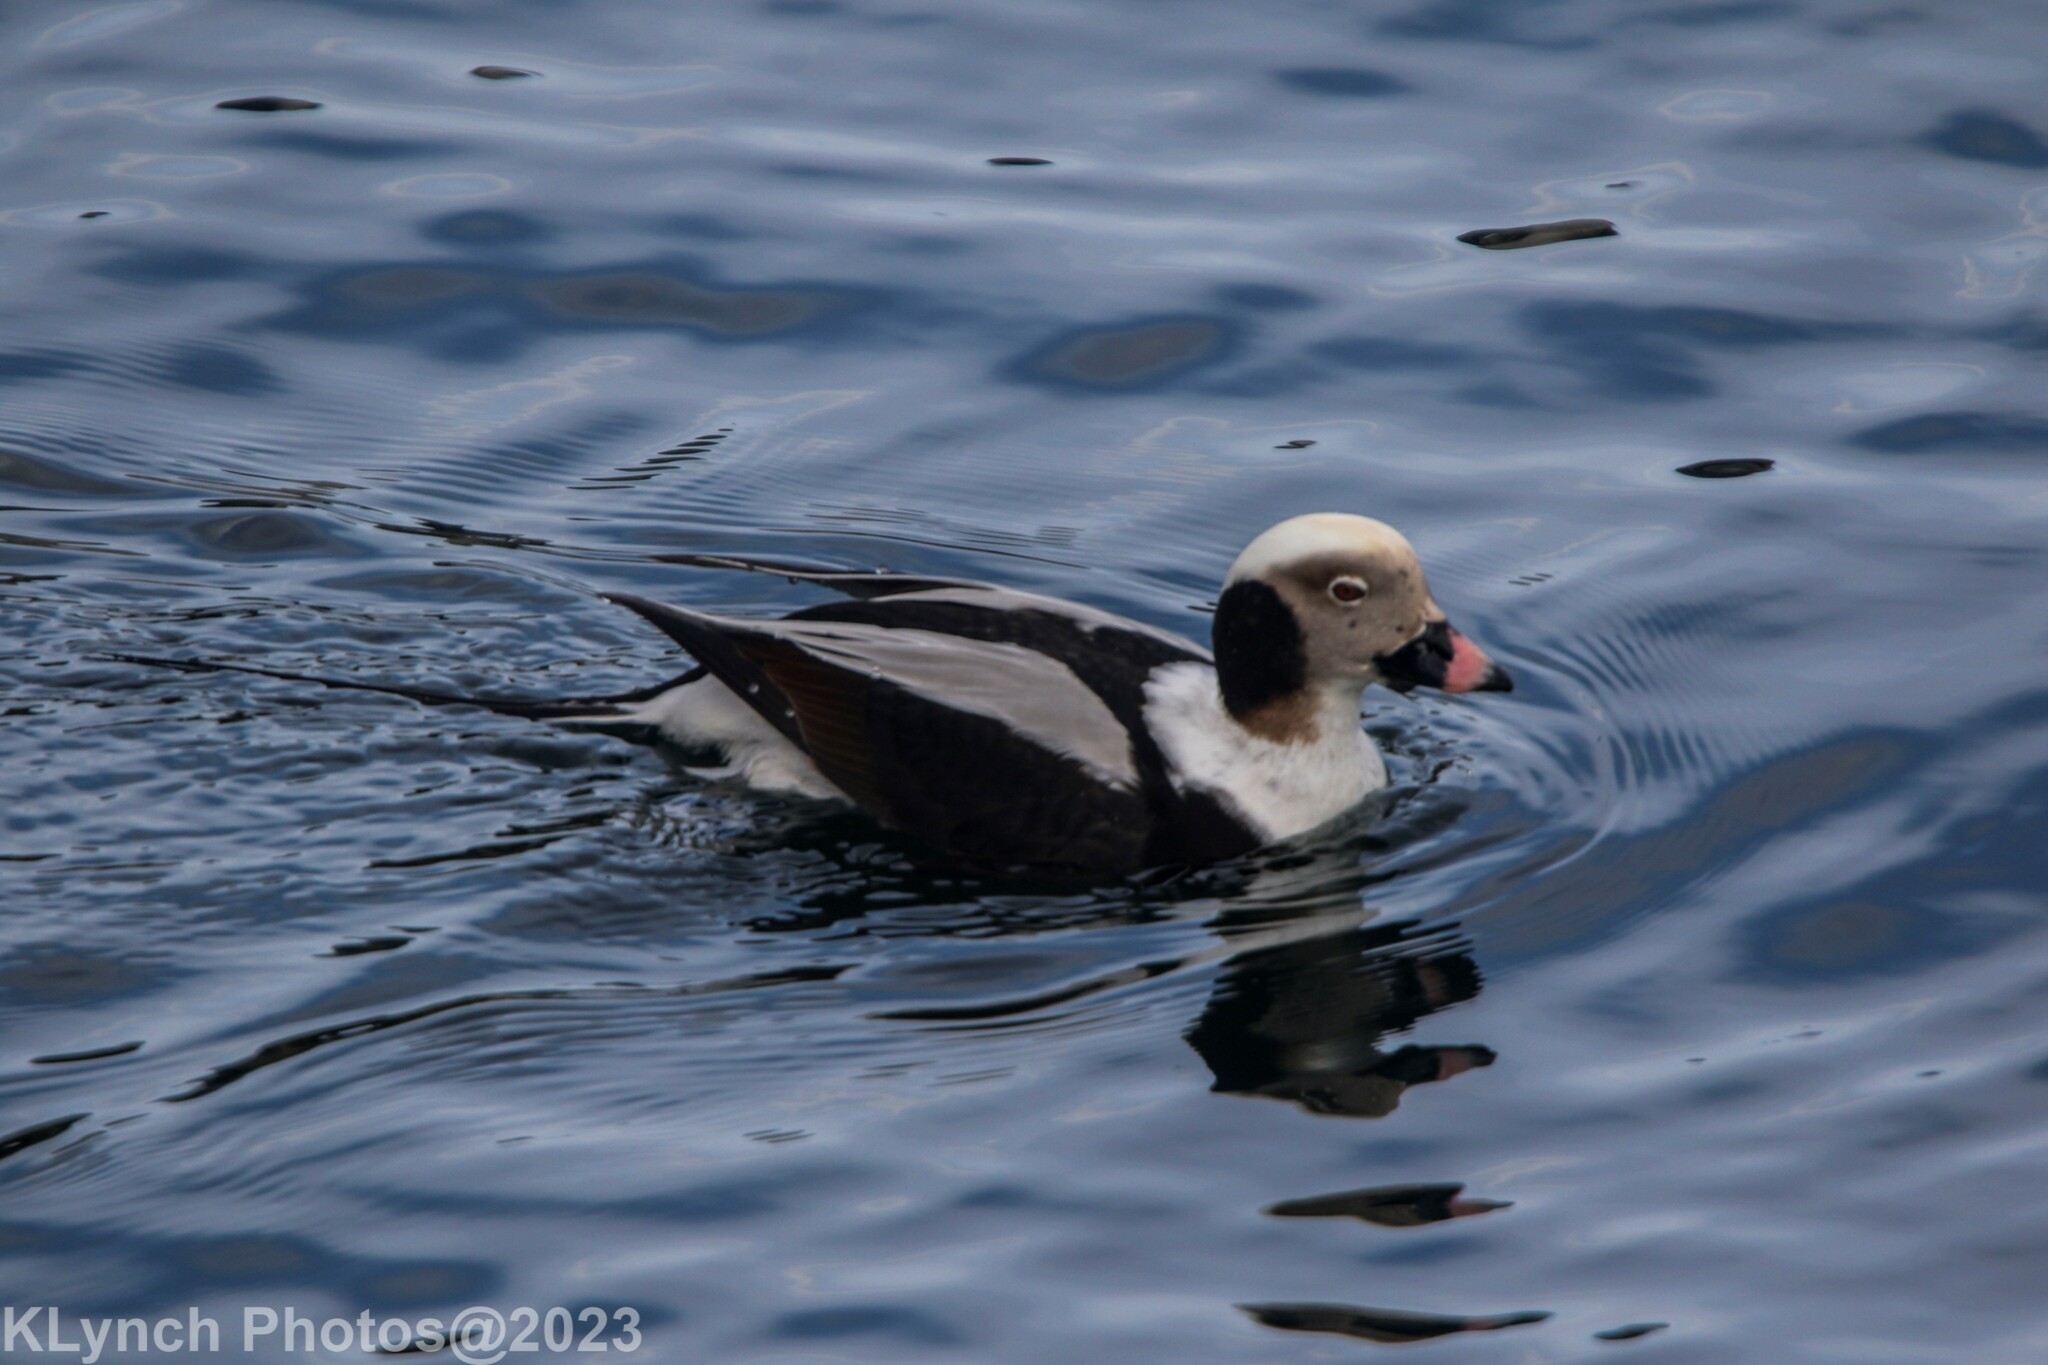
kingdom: Animalia
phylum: Chordata
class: Aves
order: Anseriformes
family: Anatidae
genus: Clangula
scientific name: Clangula hyemalis
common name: Long-tailed duck
